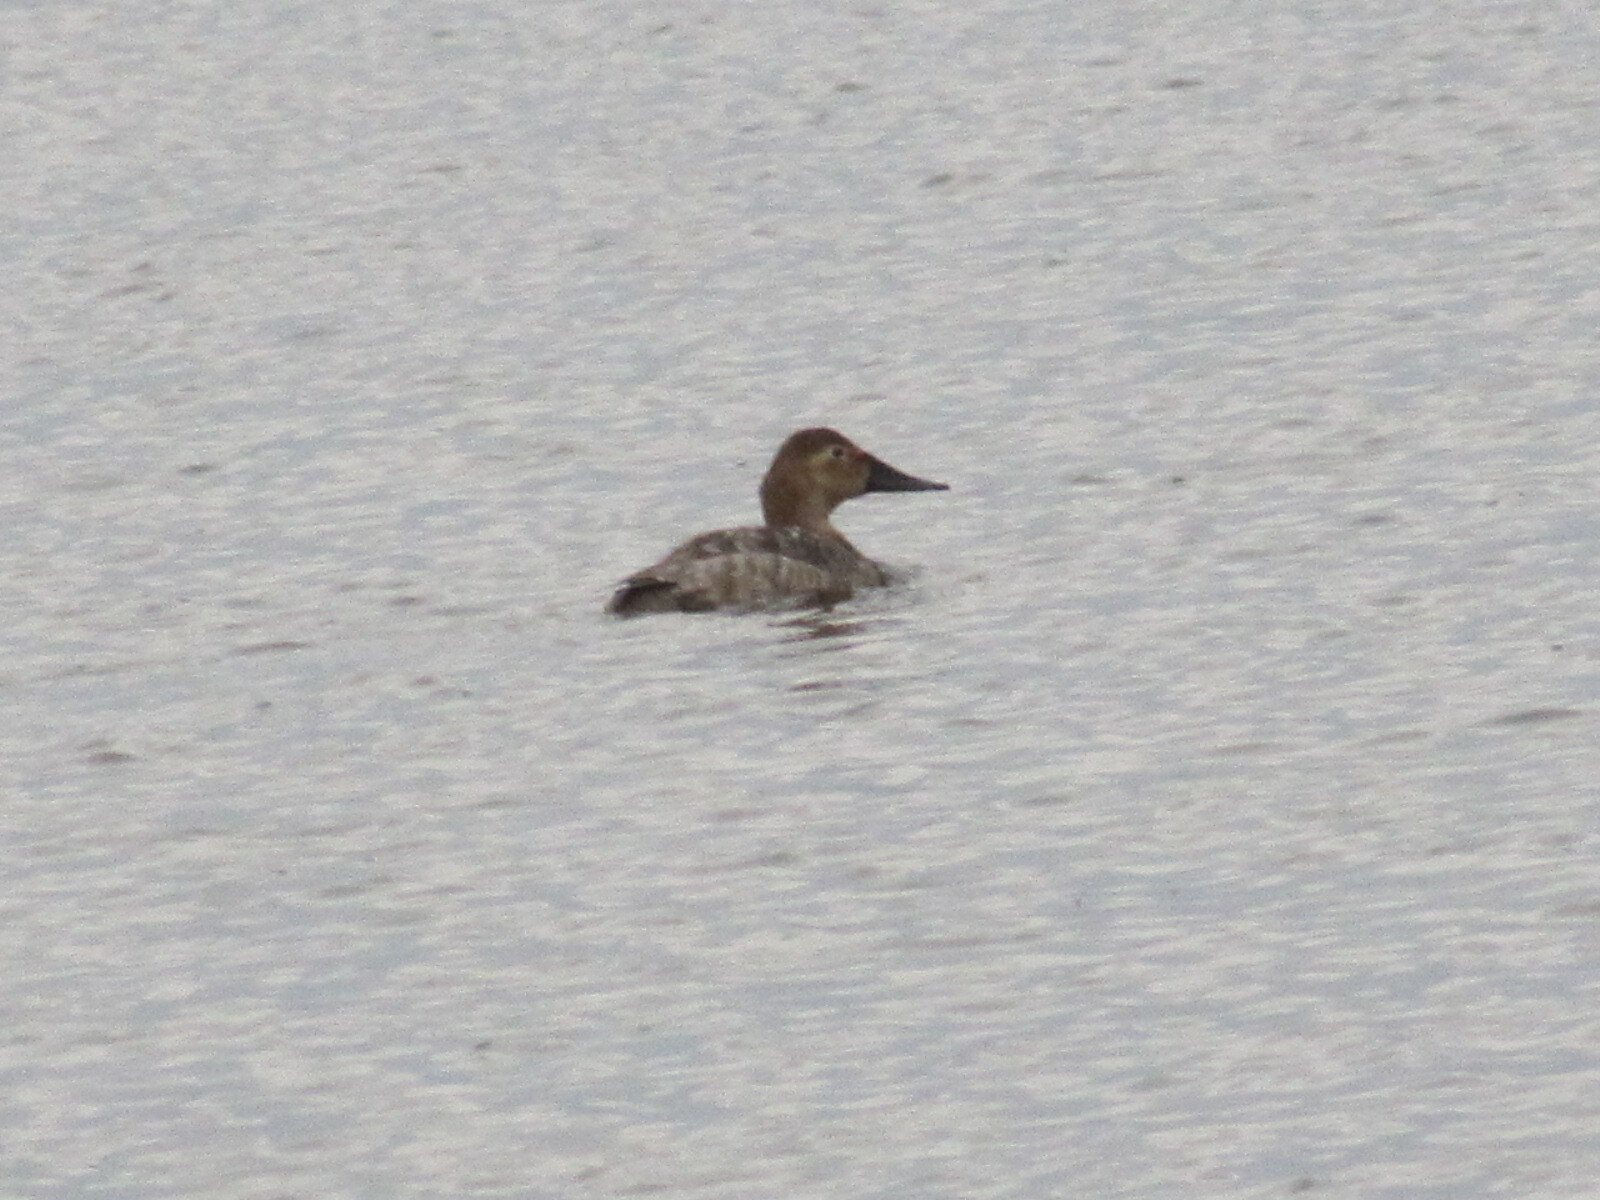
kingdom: Animalia
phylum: Chordata
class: Aves
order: Anseriformes
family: Anatidae
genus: Aythya
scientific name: Aythya valisineria
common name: Canvasback
